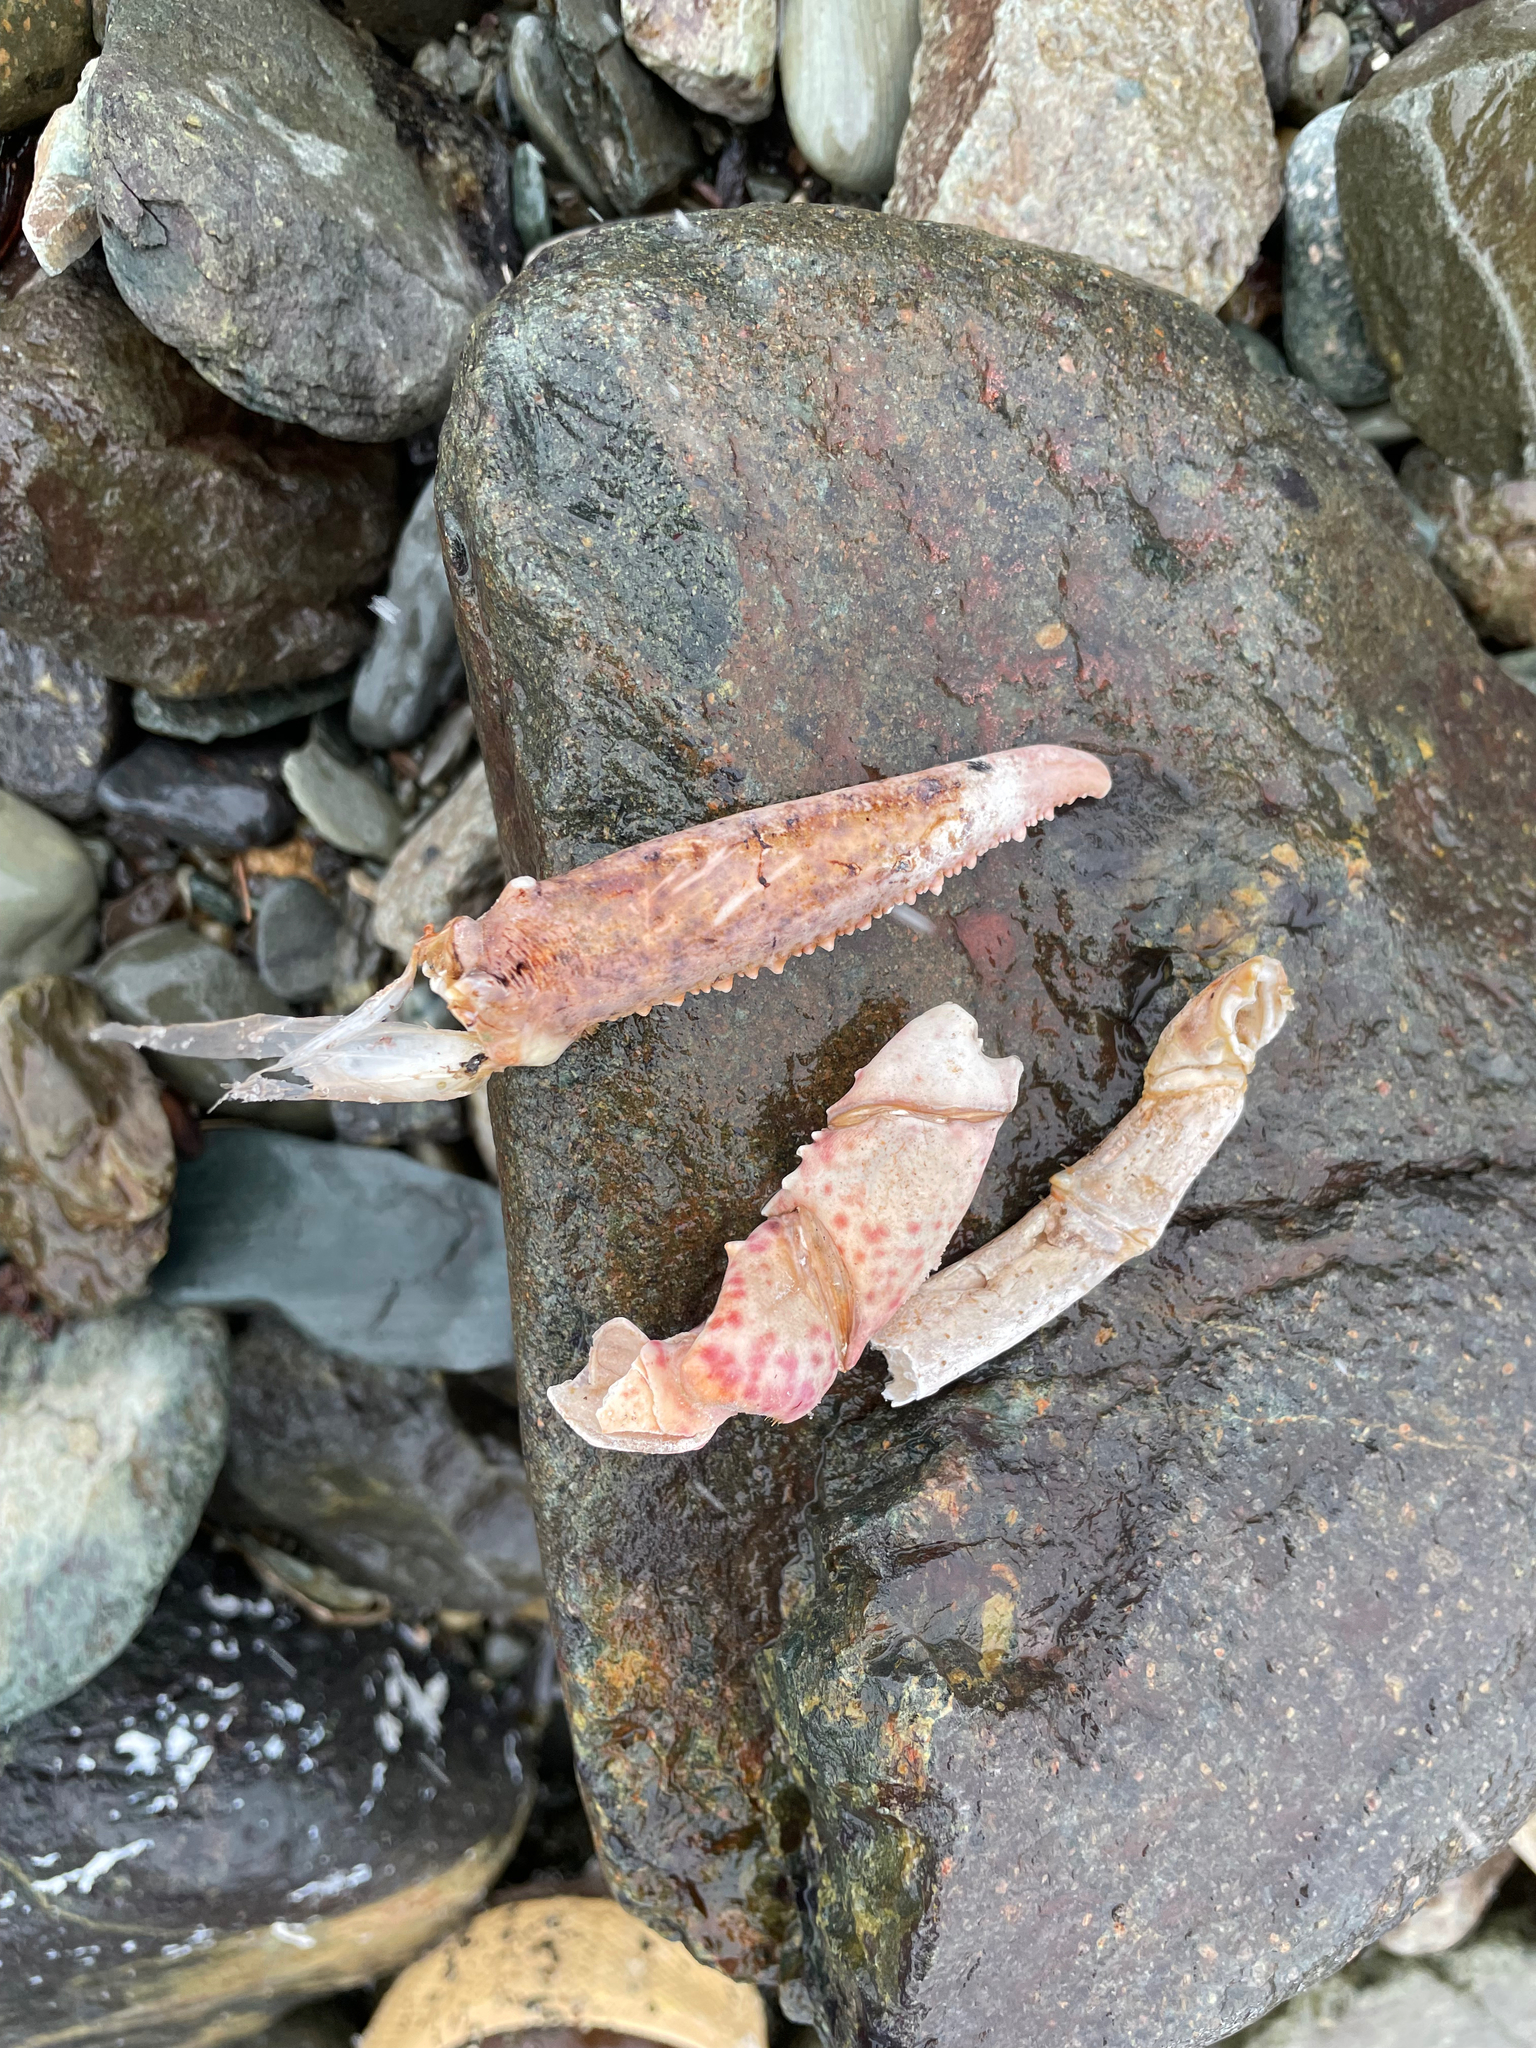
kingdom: Animalia
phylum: Arthropoda
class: Malacostraca
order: Decapoda
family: Nephropidae
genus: Homarus
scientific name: Homarus americanus
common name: American lobster
